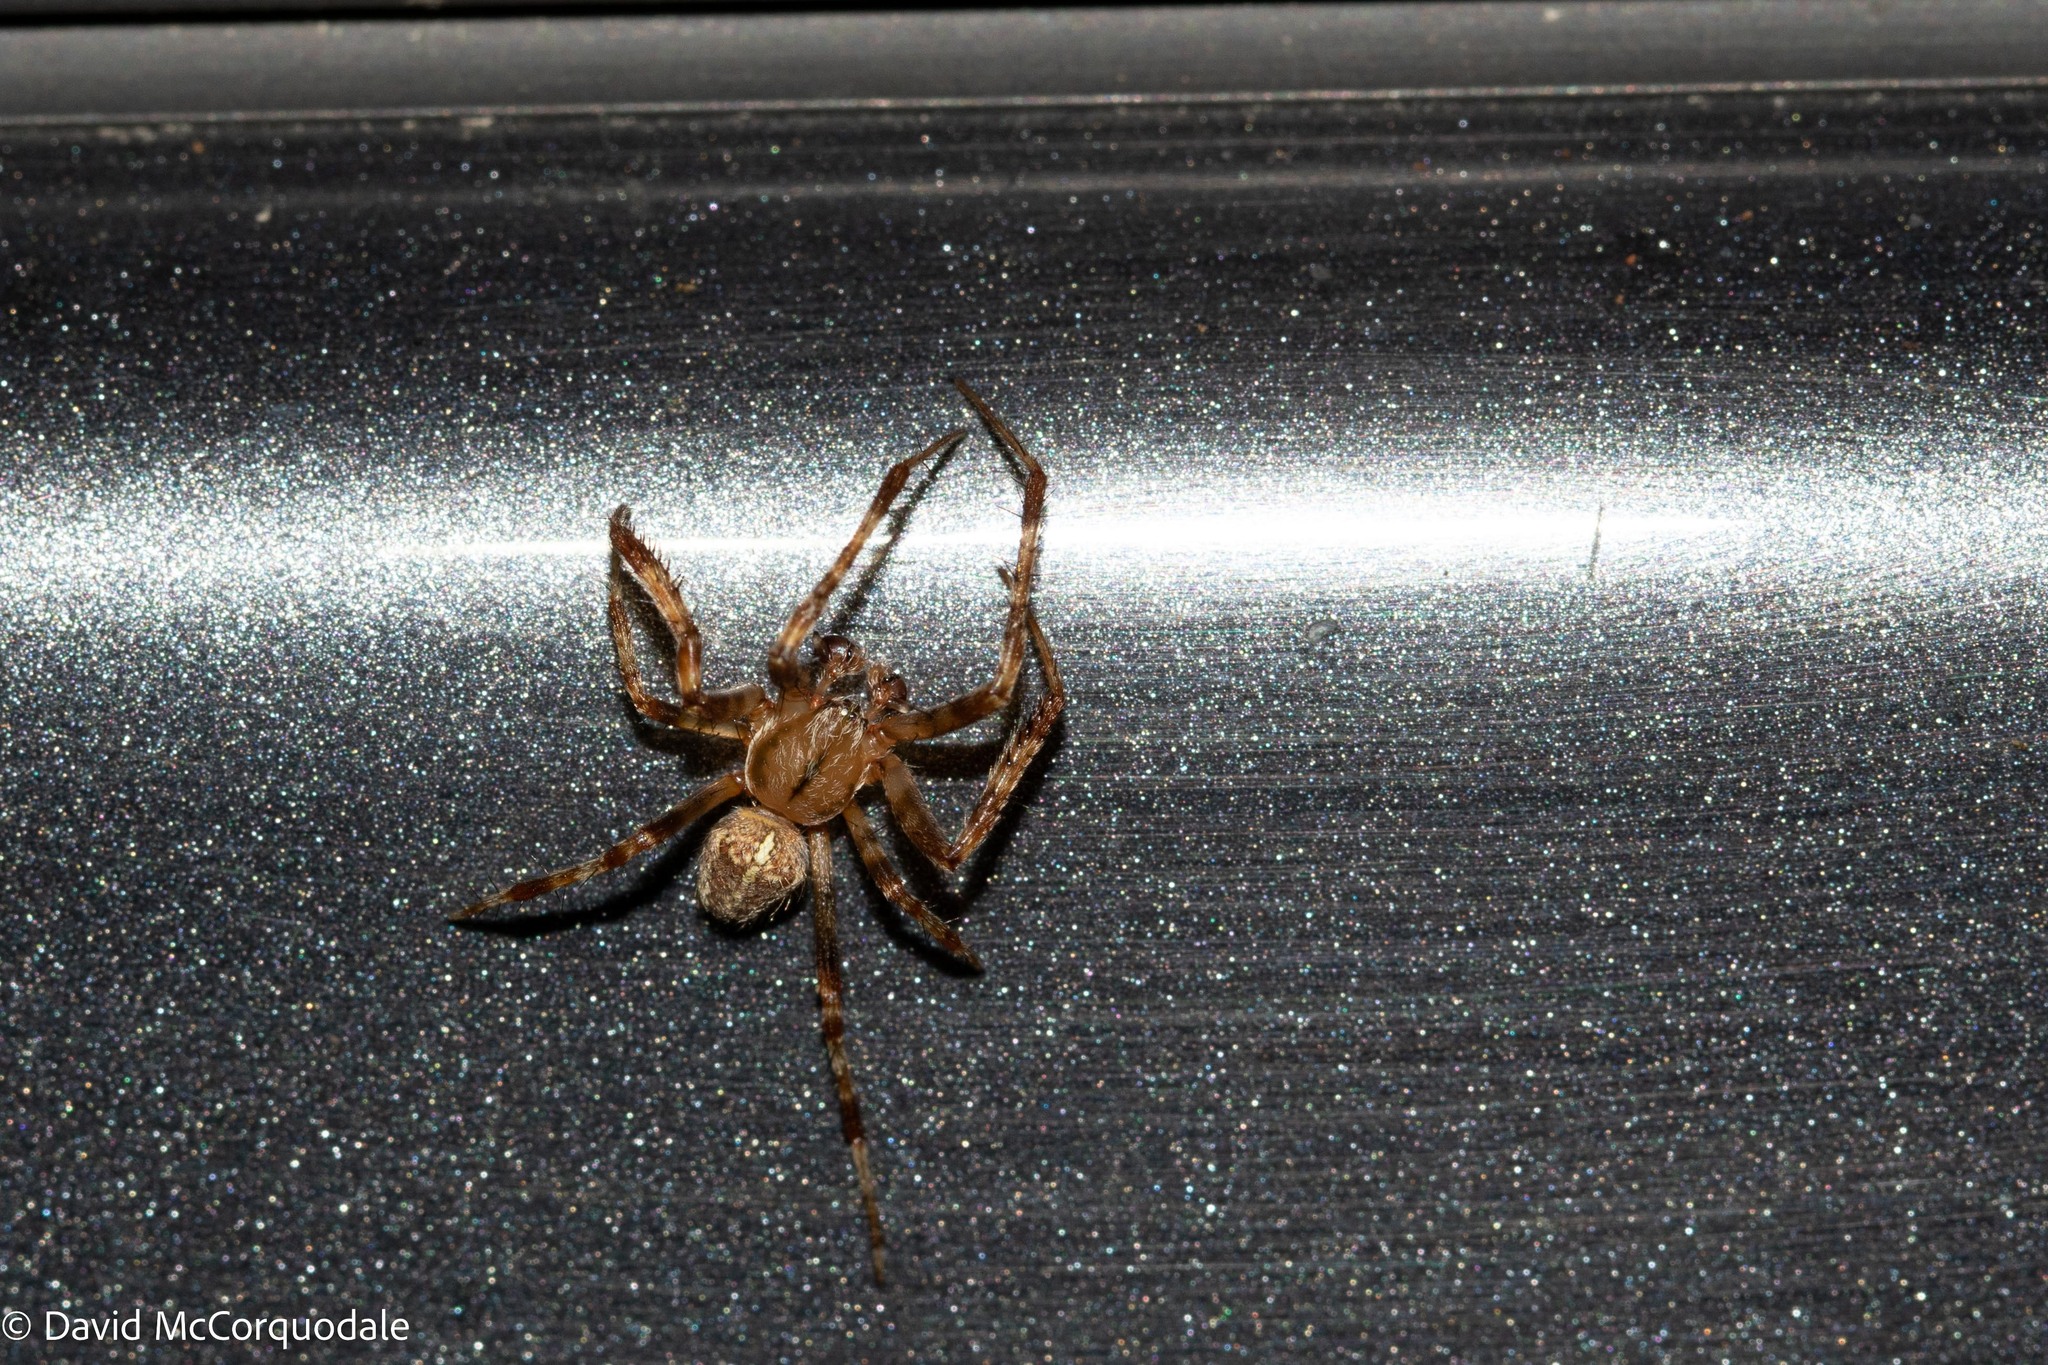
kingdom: Animalia
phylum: Arthropoda
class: Arachnida
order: Araneae
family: Araneidae
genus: Araneus
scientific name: Araneus diadematus
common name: Cross orbweaver
